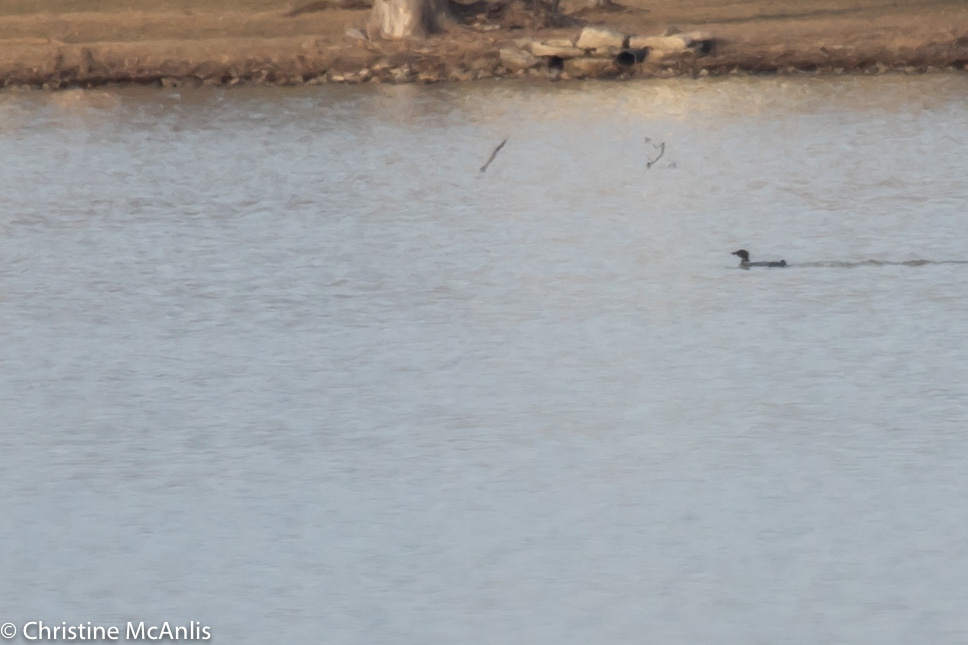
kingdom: Animalia
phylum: Chordata
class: Aves
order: Gaviiformes
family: Gaviidae
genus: Gavia
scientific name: Gavia immer
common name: Common loon
